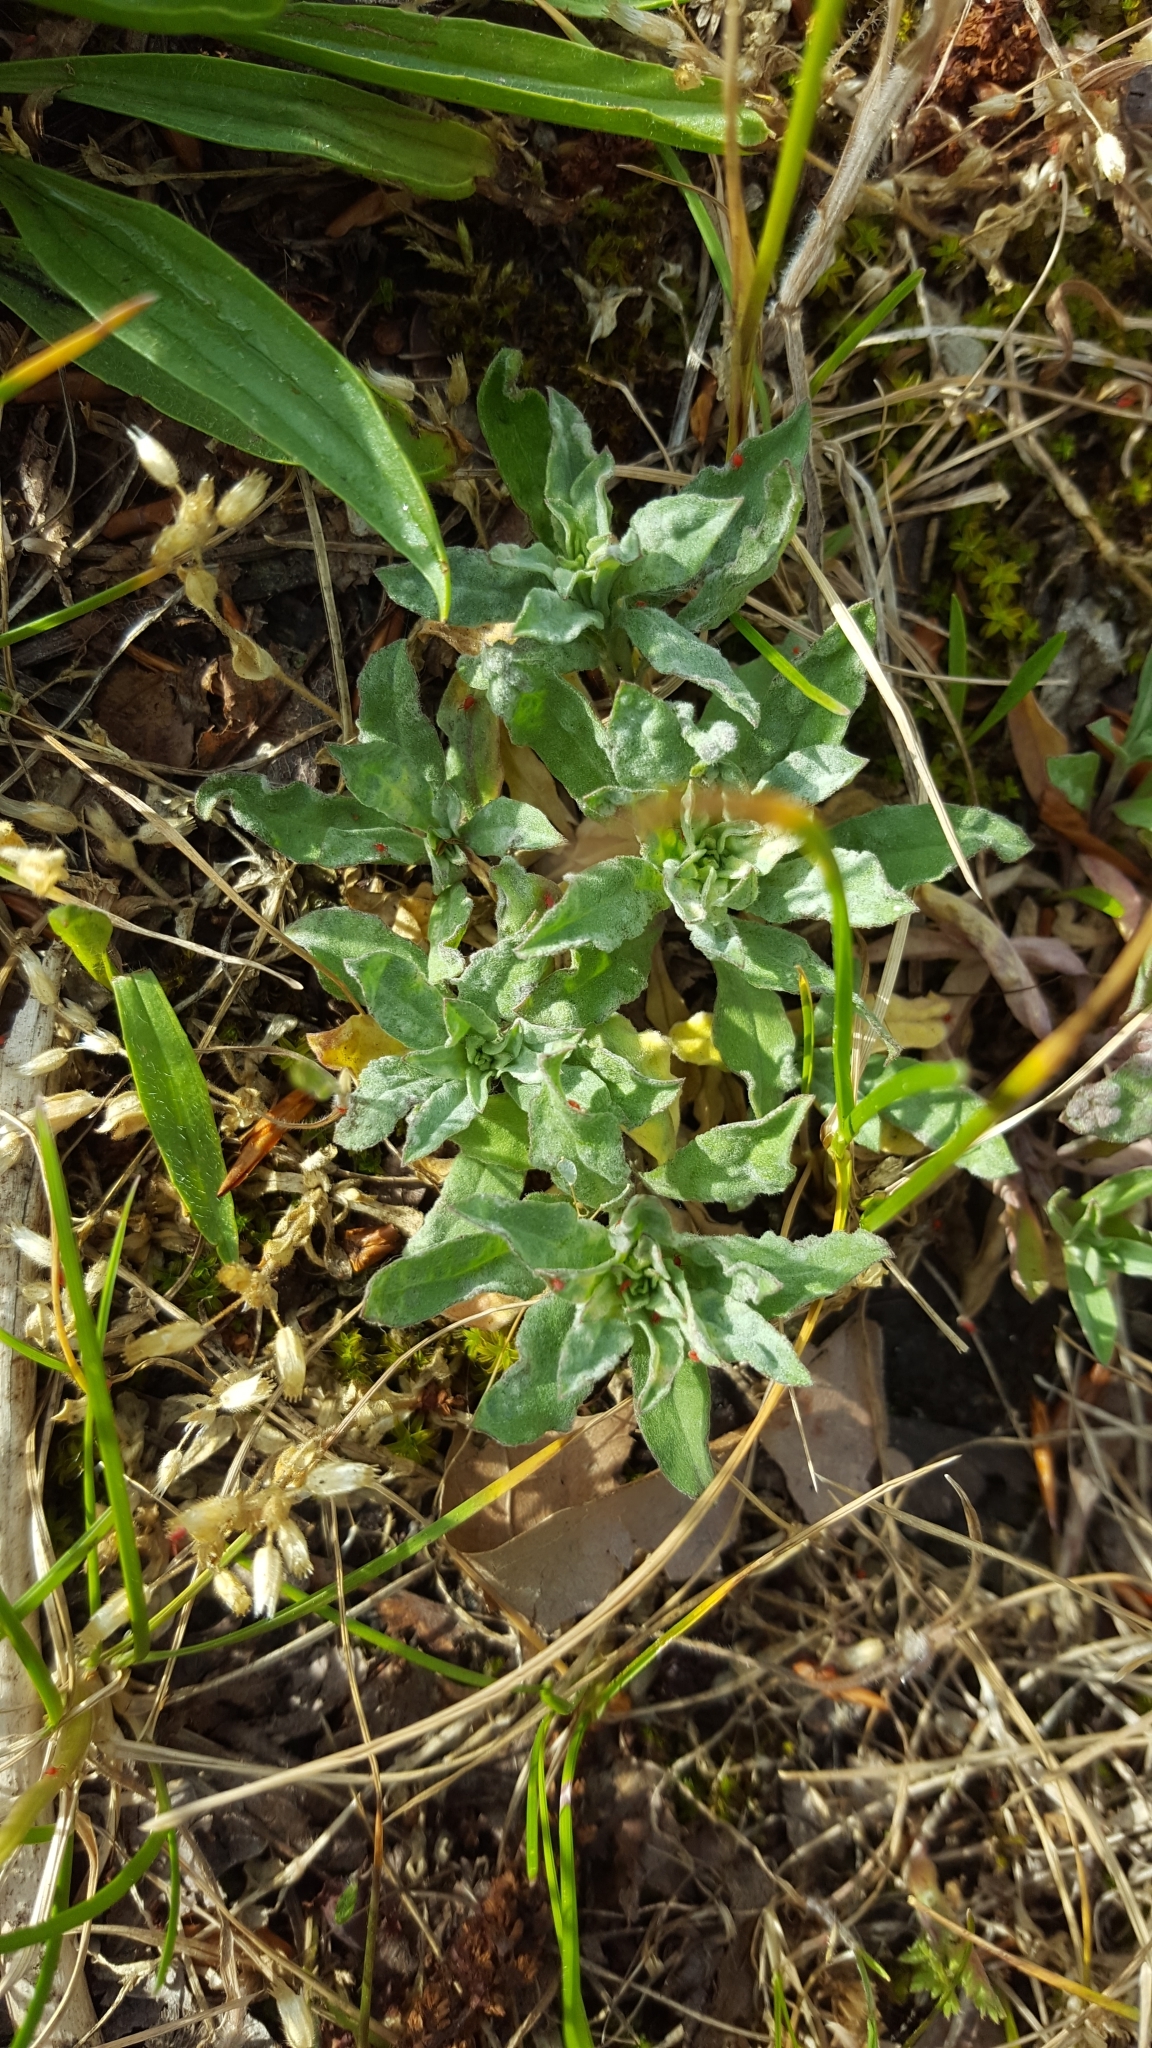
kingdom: Plantae
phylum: Tracheophyta
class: Magnoliopsida
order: Brassicales
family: Brassicaceae
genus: Berteroa
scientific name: Berteroa incana
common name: Hoary alison
